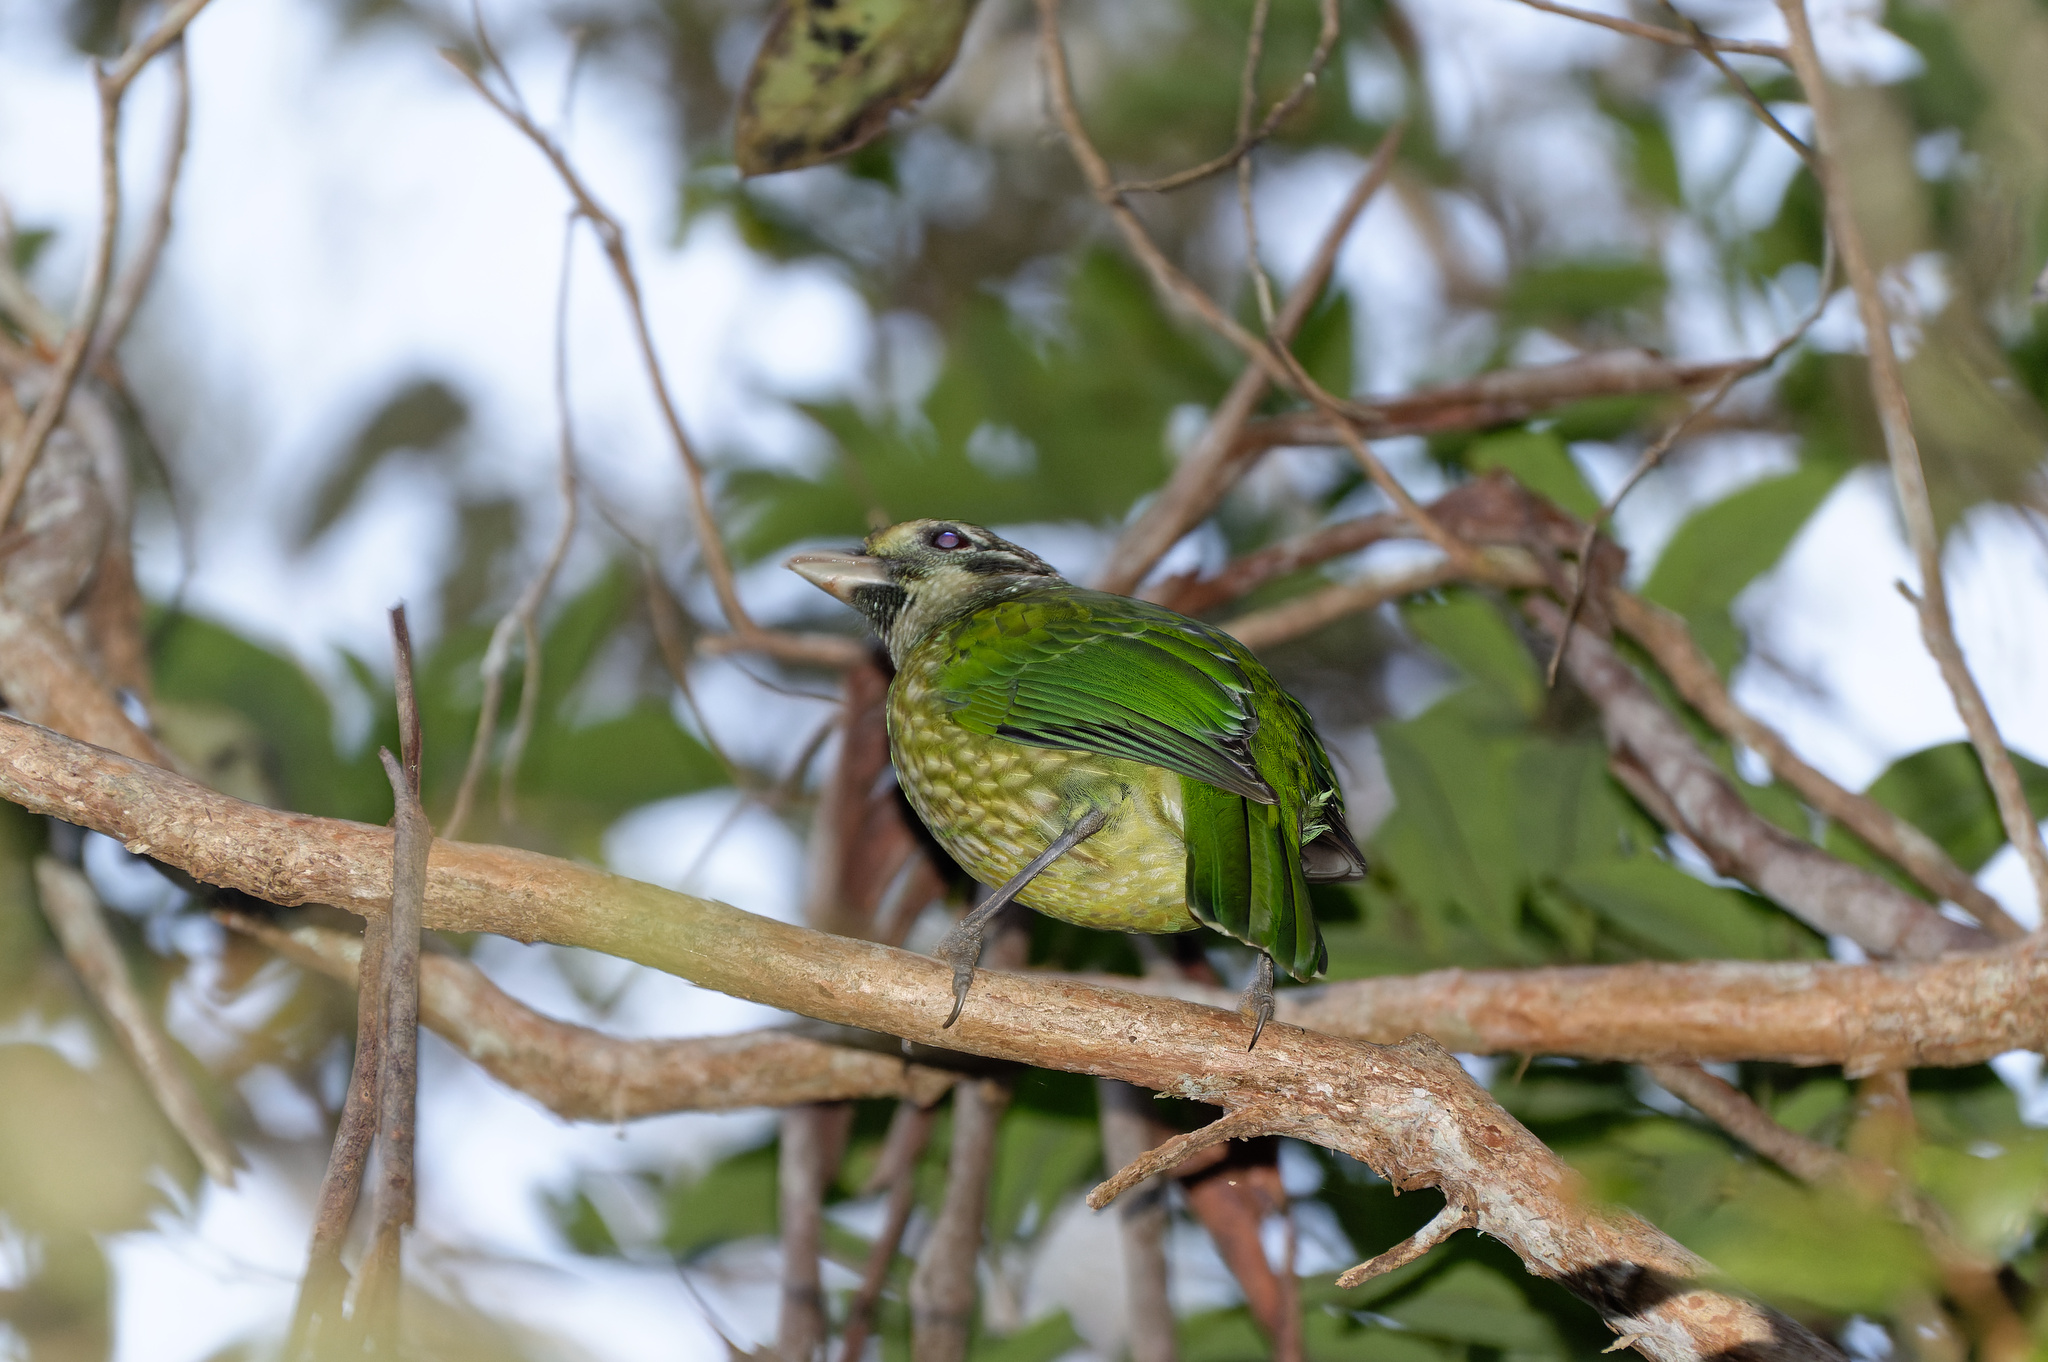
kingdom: Animalia
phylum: Chordata
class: Aves
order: Passeriformes
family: Ptilonorhynchidae
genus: Ailuroedus
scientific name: Ailuroedus maculosus
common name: Spotted catbird
